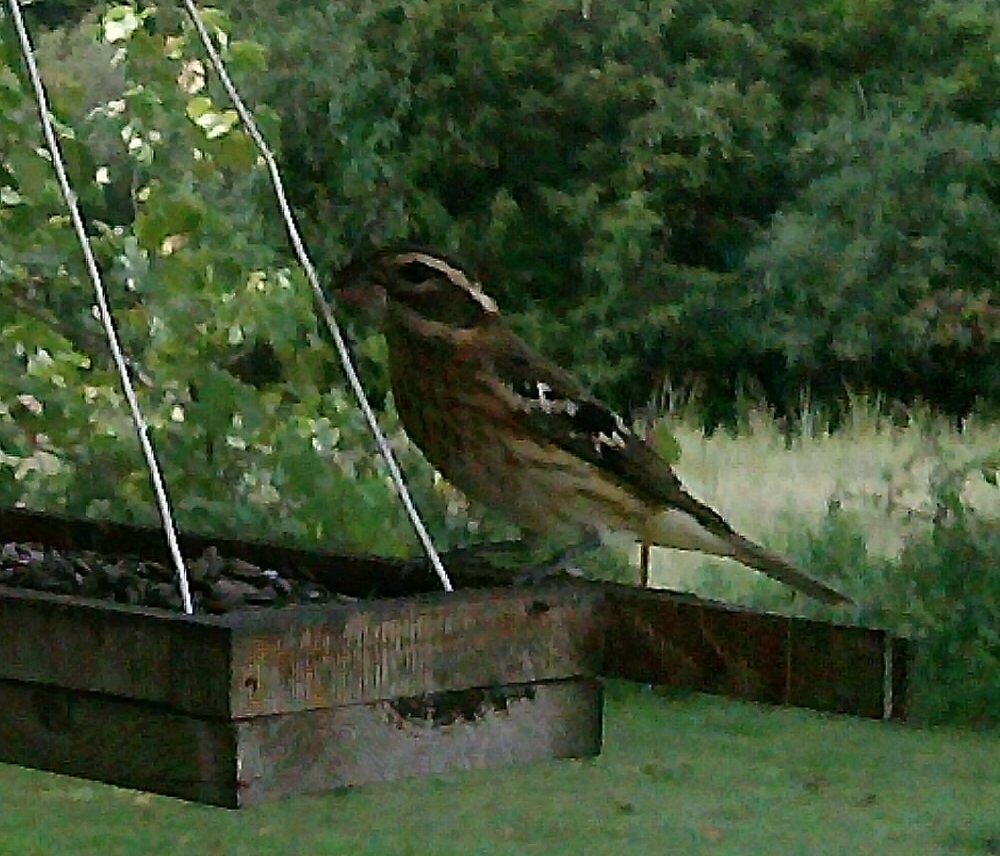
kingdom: Animalia
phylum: Chordata
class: Aves
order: Passeriformes
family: Cardinalidae
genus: Pheucticus
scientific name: Pheucticus ludovicianus
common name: Rose-breasted grosbeak
